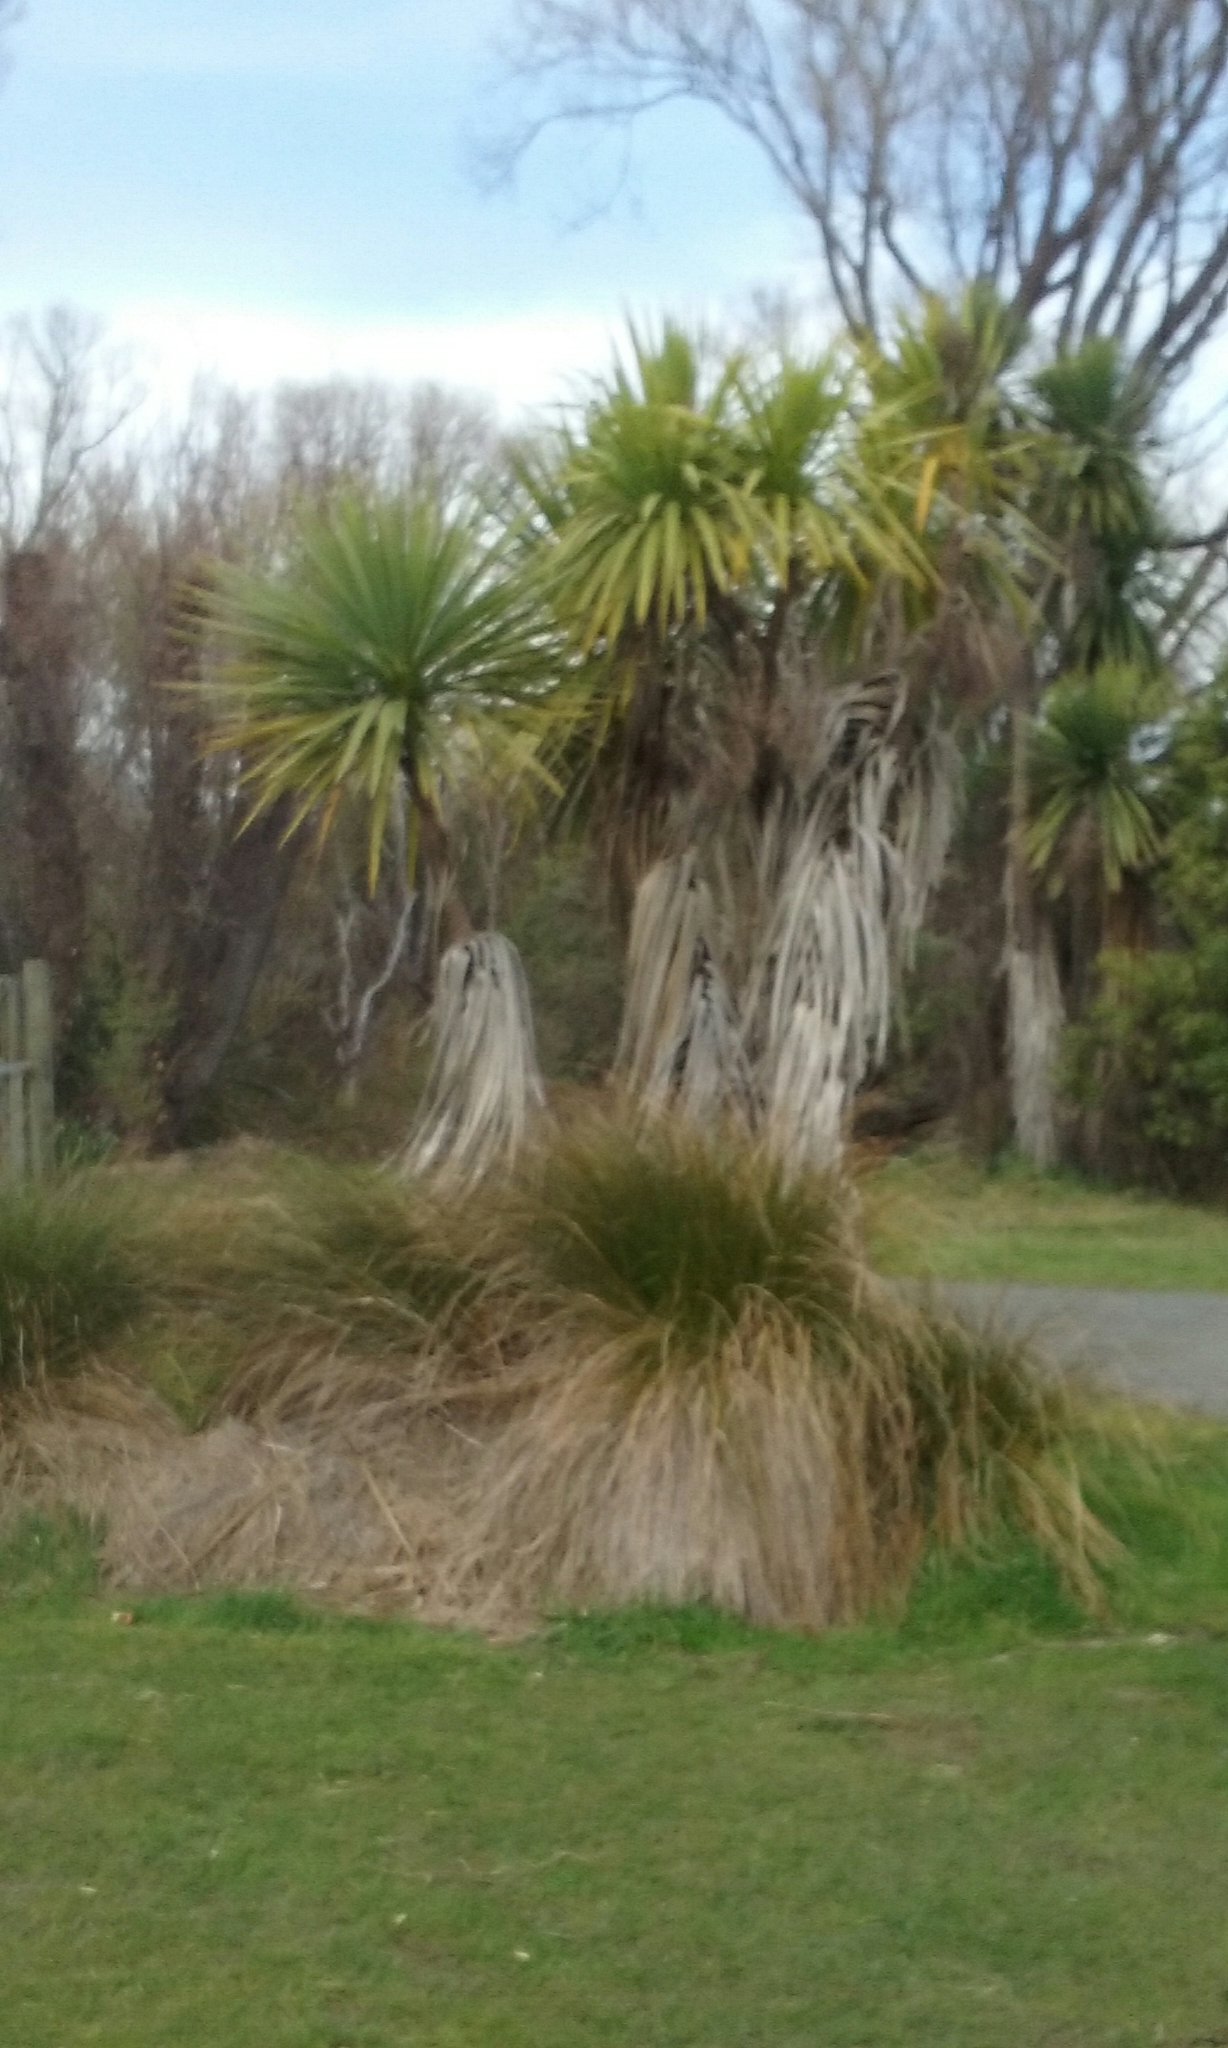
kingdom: Plantae
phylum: Tracheophyta
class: Liliopsida
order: Asparagales
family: Asparagaceae
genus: Cordyline
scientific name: Cordyline australis
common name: Cabbage-palm
